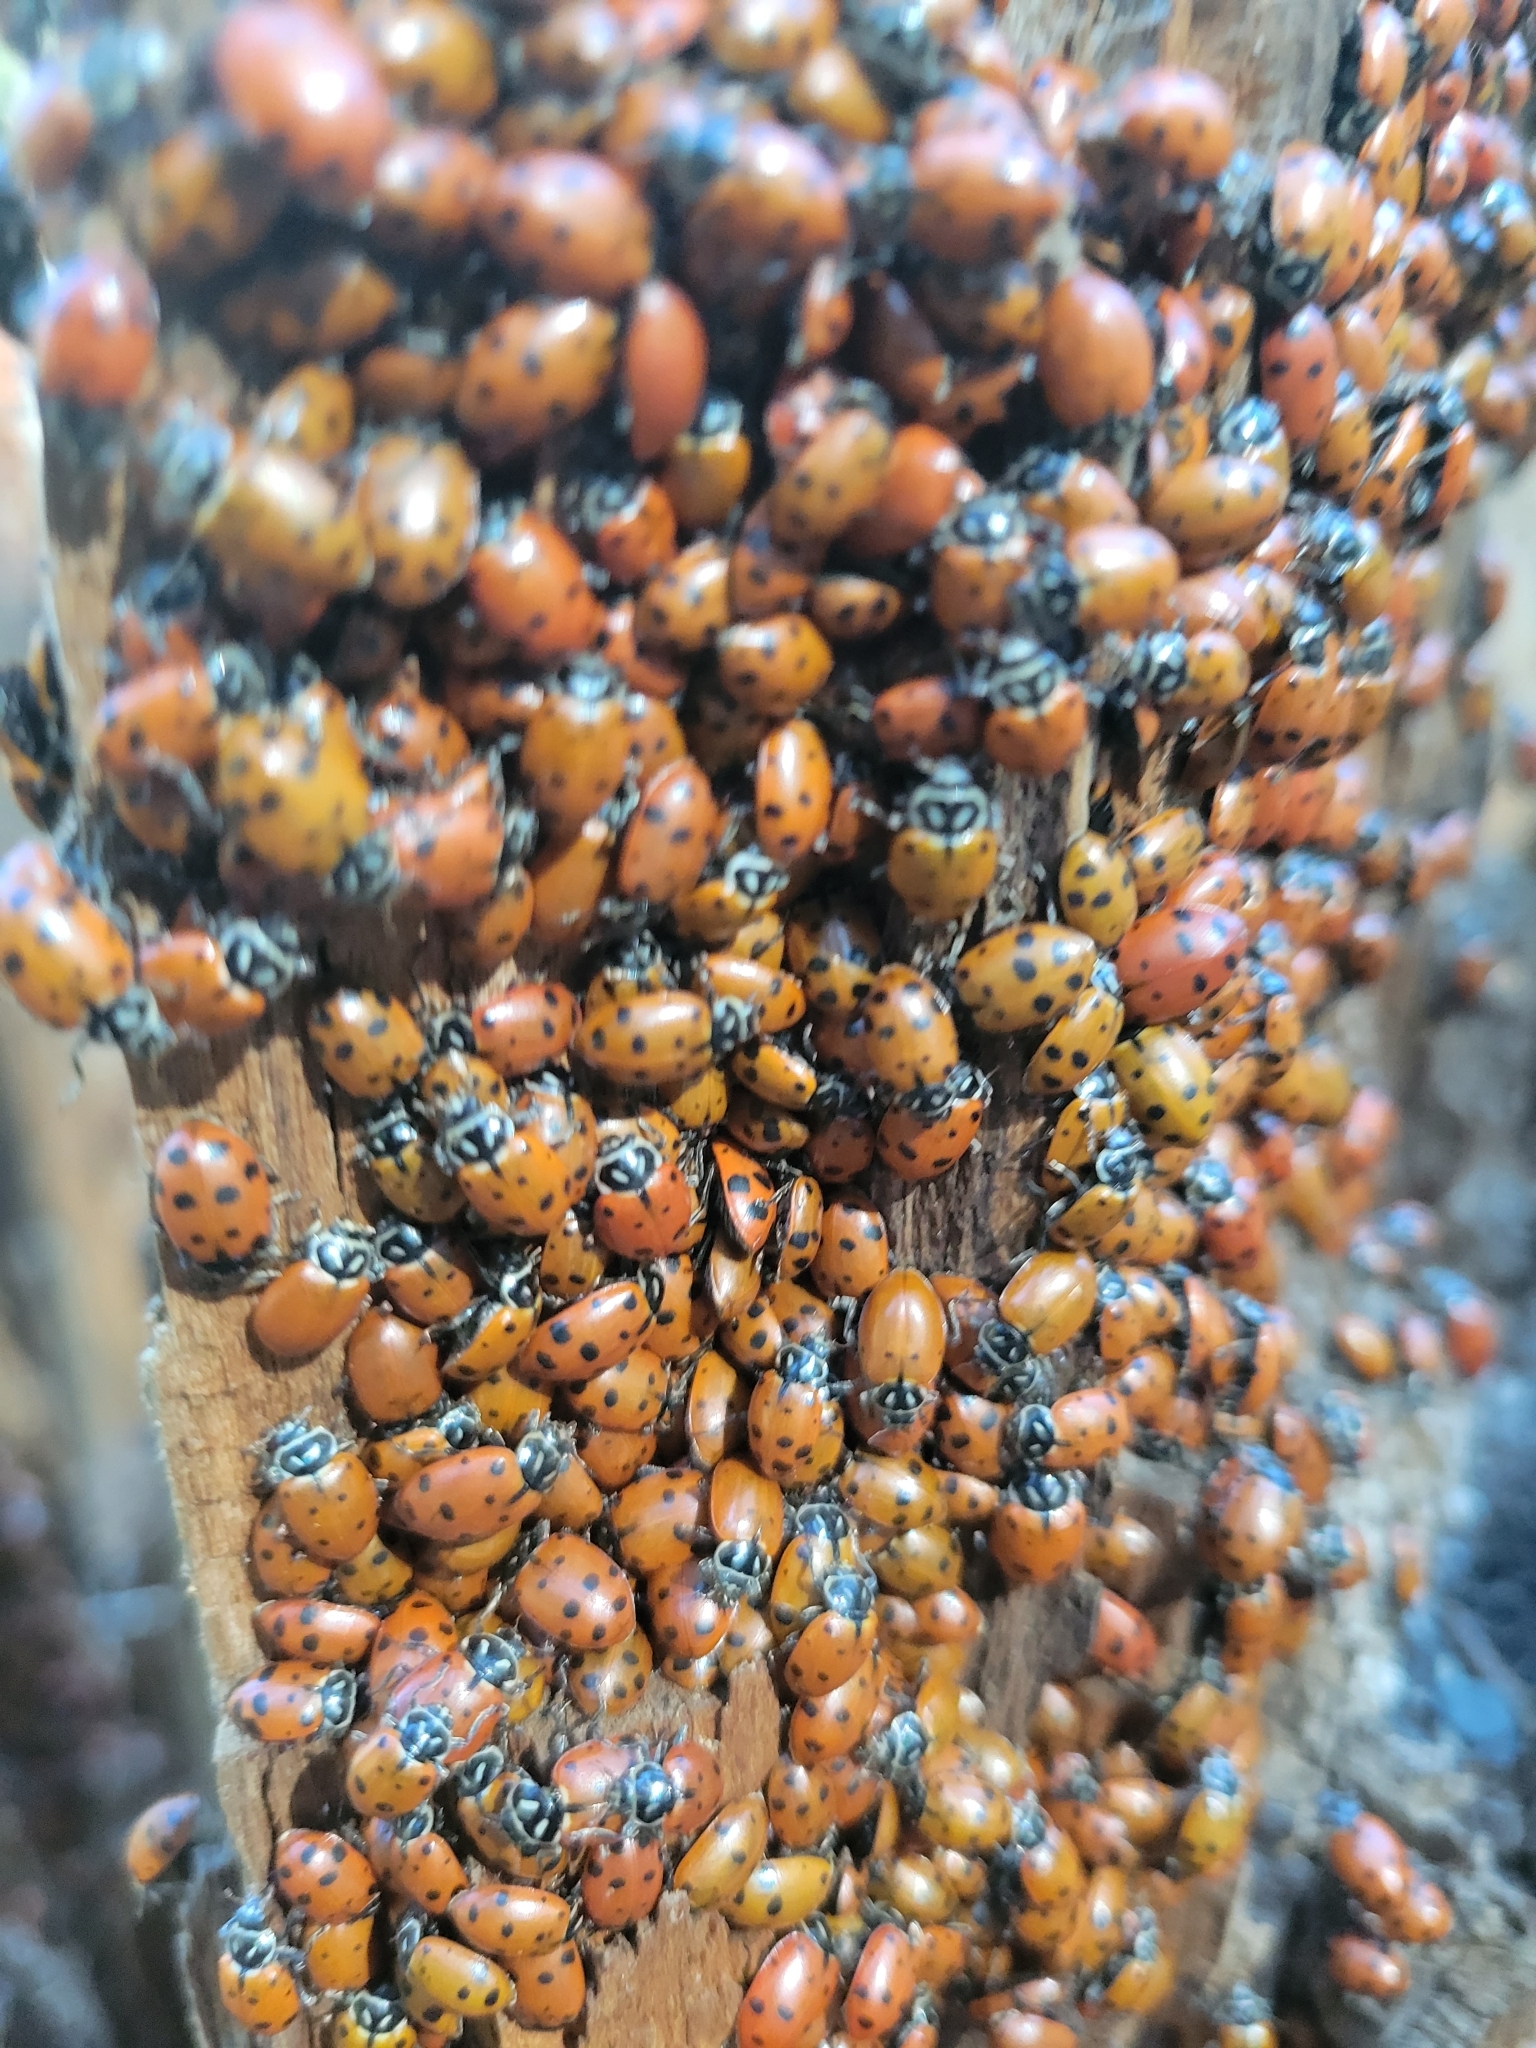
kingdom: Animalia
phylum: Arthropoda
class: Insecta
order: Coleoptera
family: Coccinellidae
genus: Hippodamia
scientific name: Hippodamia convergens
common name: Convergent lady beetle
